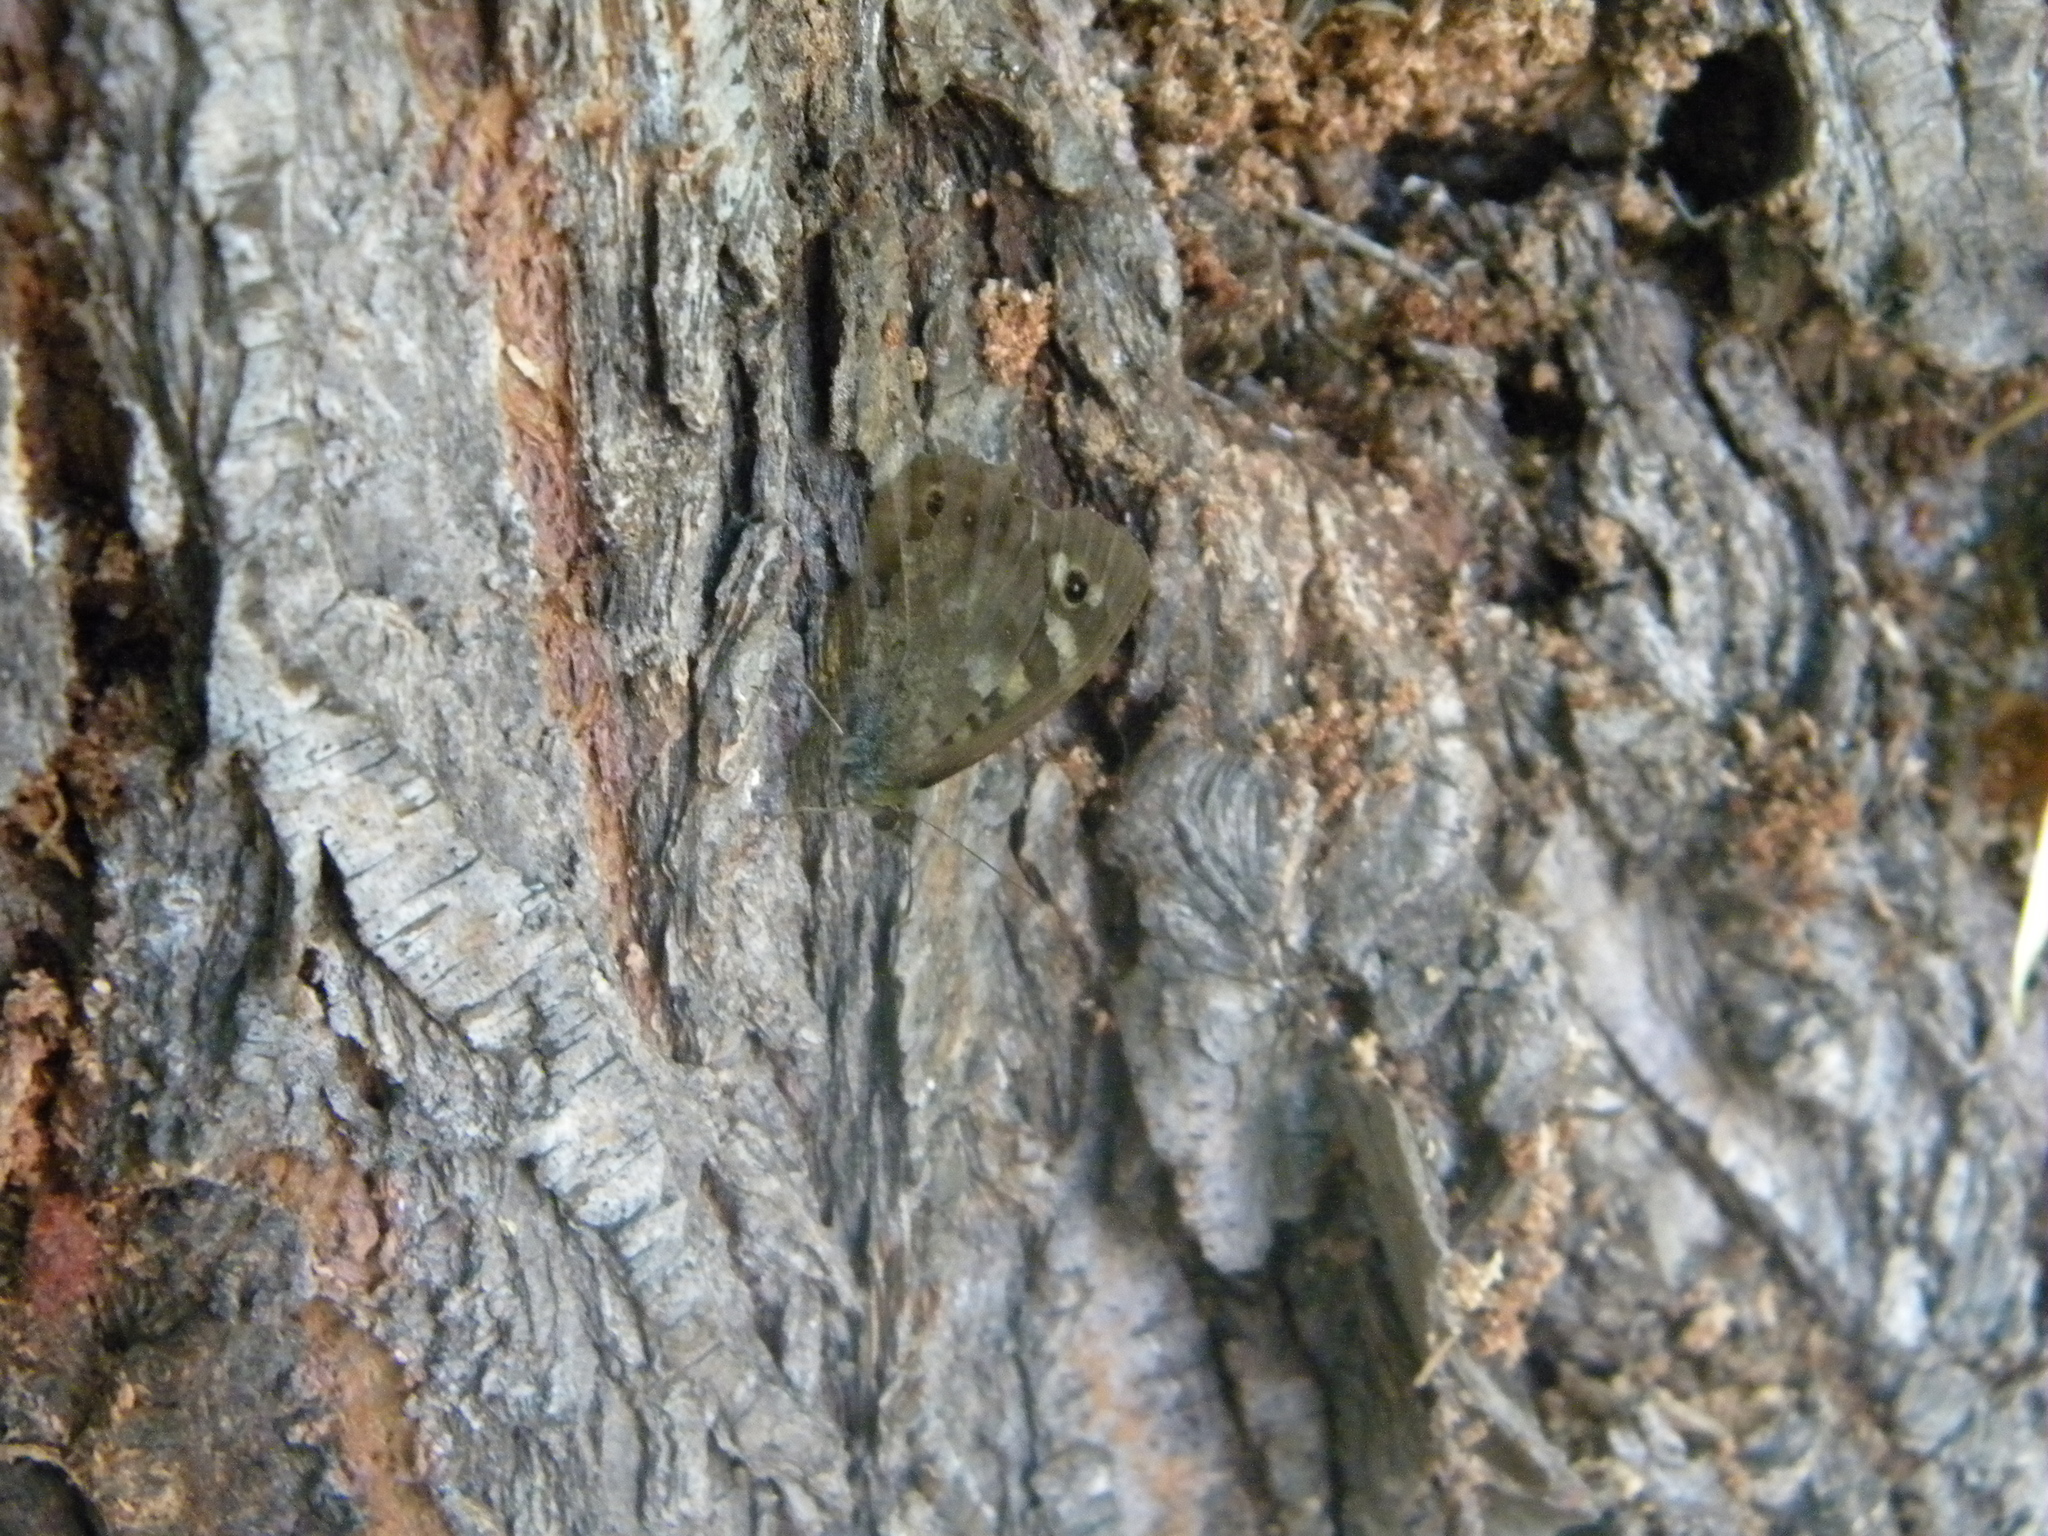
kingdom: Animalia
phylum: Arthropoda
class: Insecta
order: Lepidoptera
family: Nymphalidae
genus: Pararge
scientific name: Pararge aegeria
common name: Speckled wood
